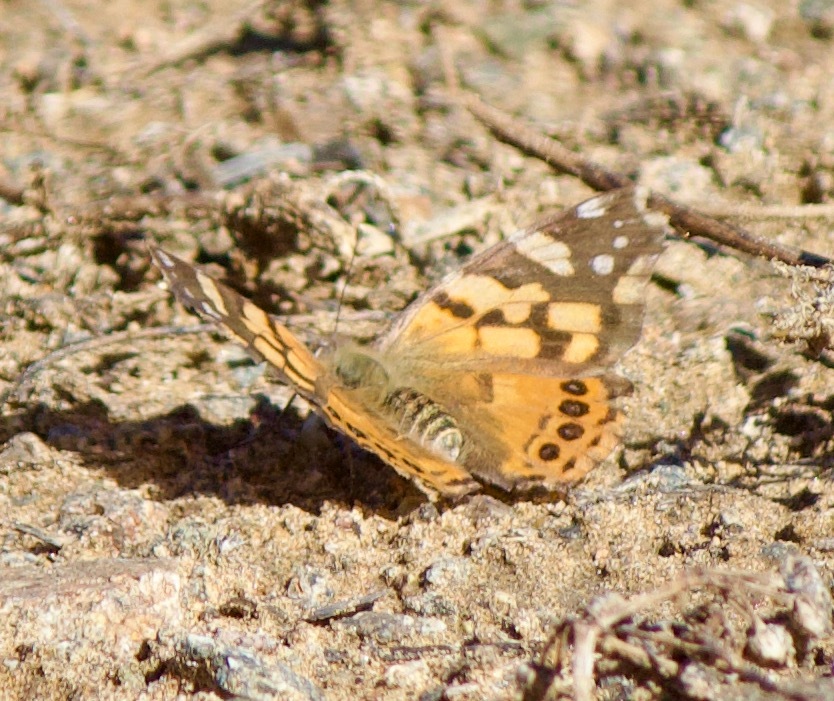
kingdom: Animalia
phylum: Arthropoda
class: Insecta
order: Lepidoptera
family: Nymphalidae
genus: Vanessa
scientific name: Vanessa carye
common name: Subtropical lady
